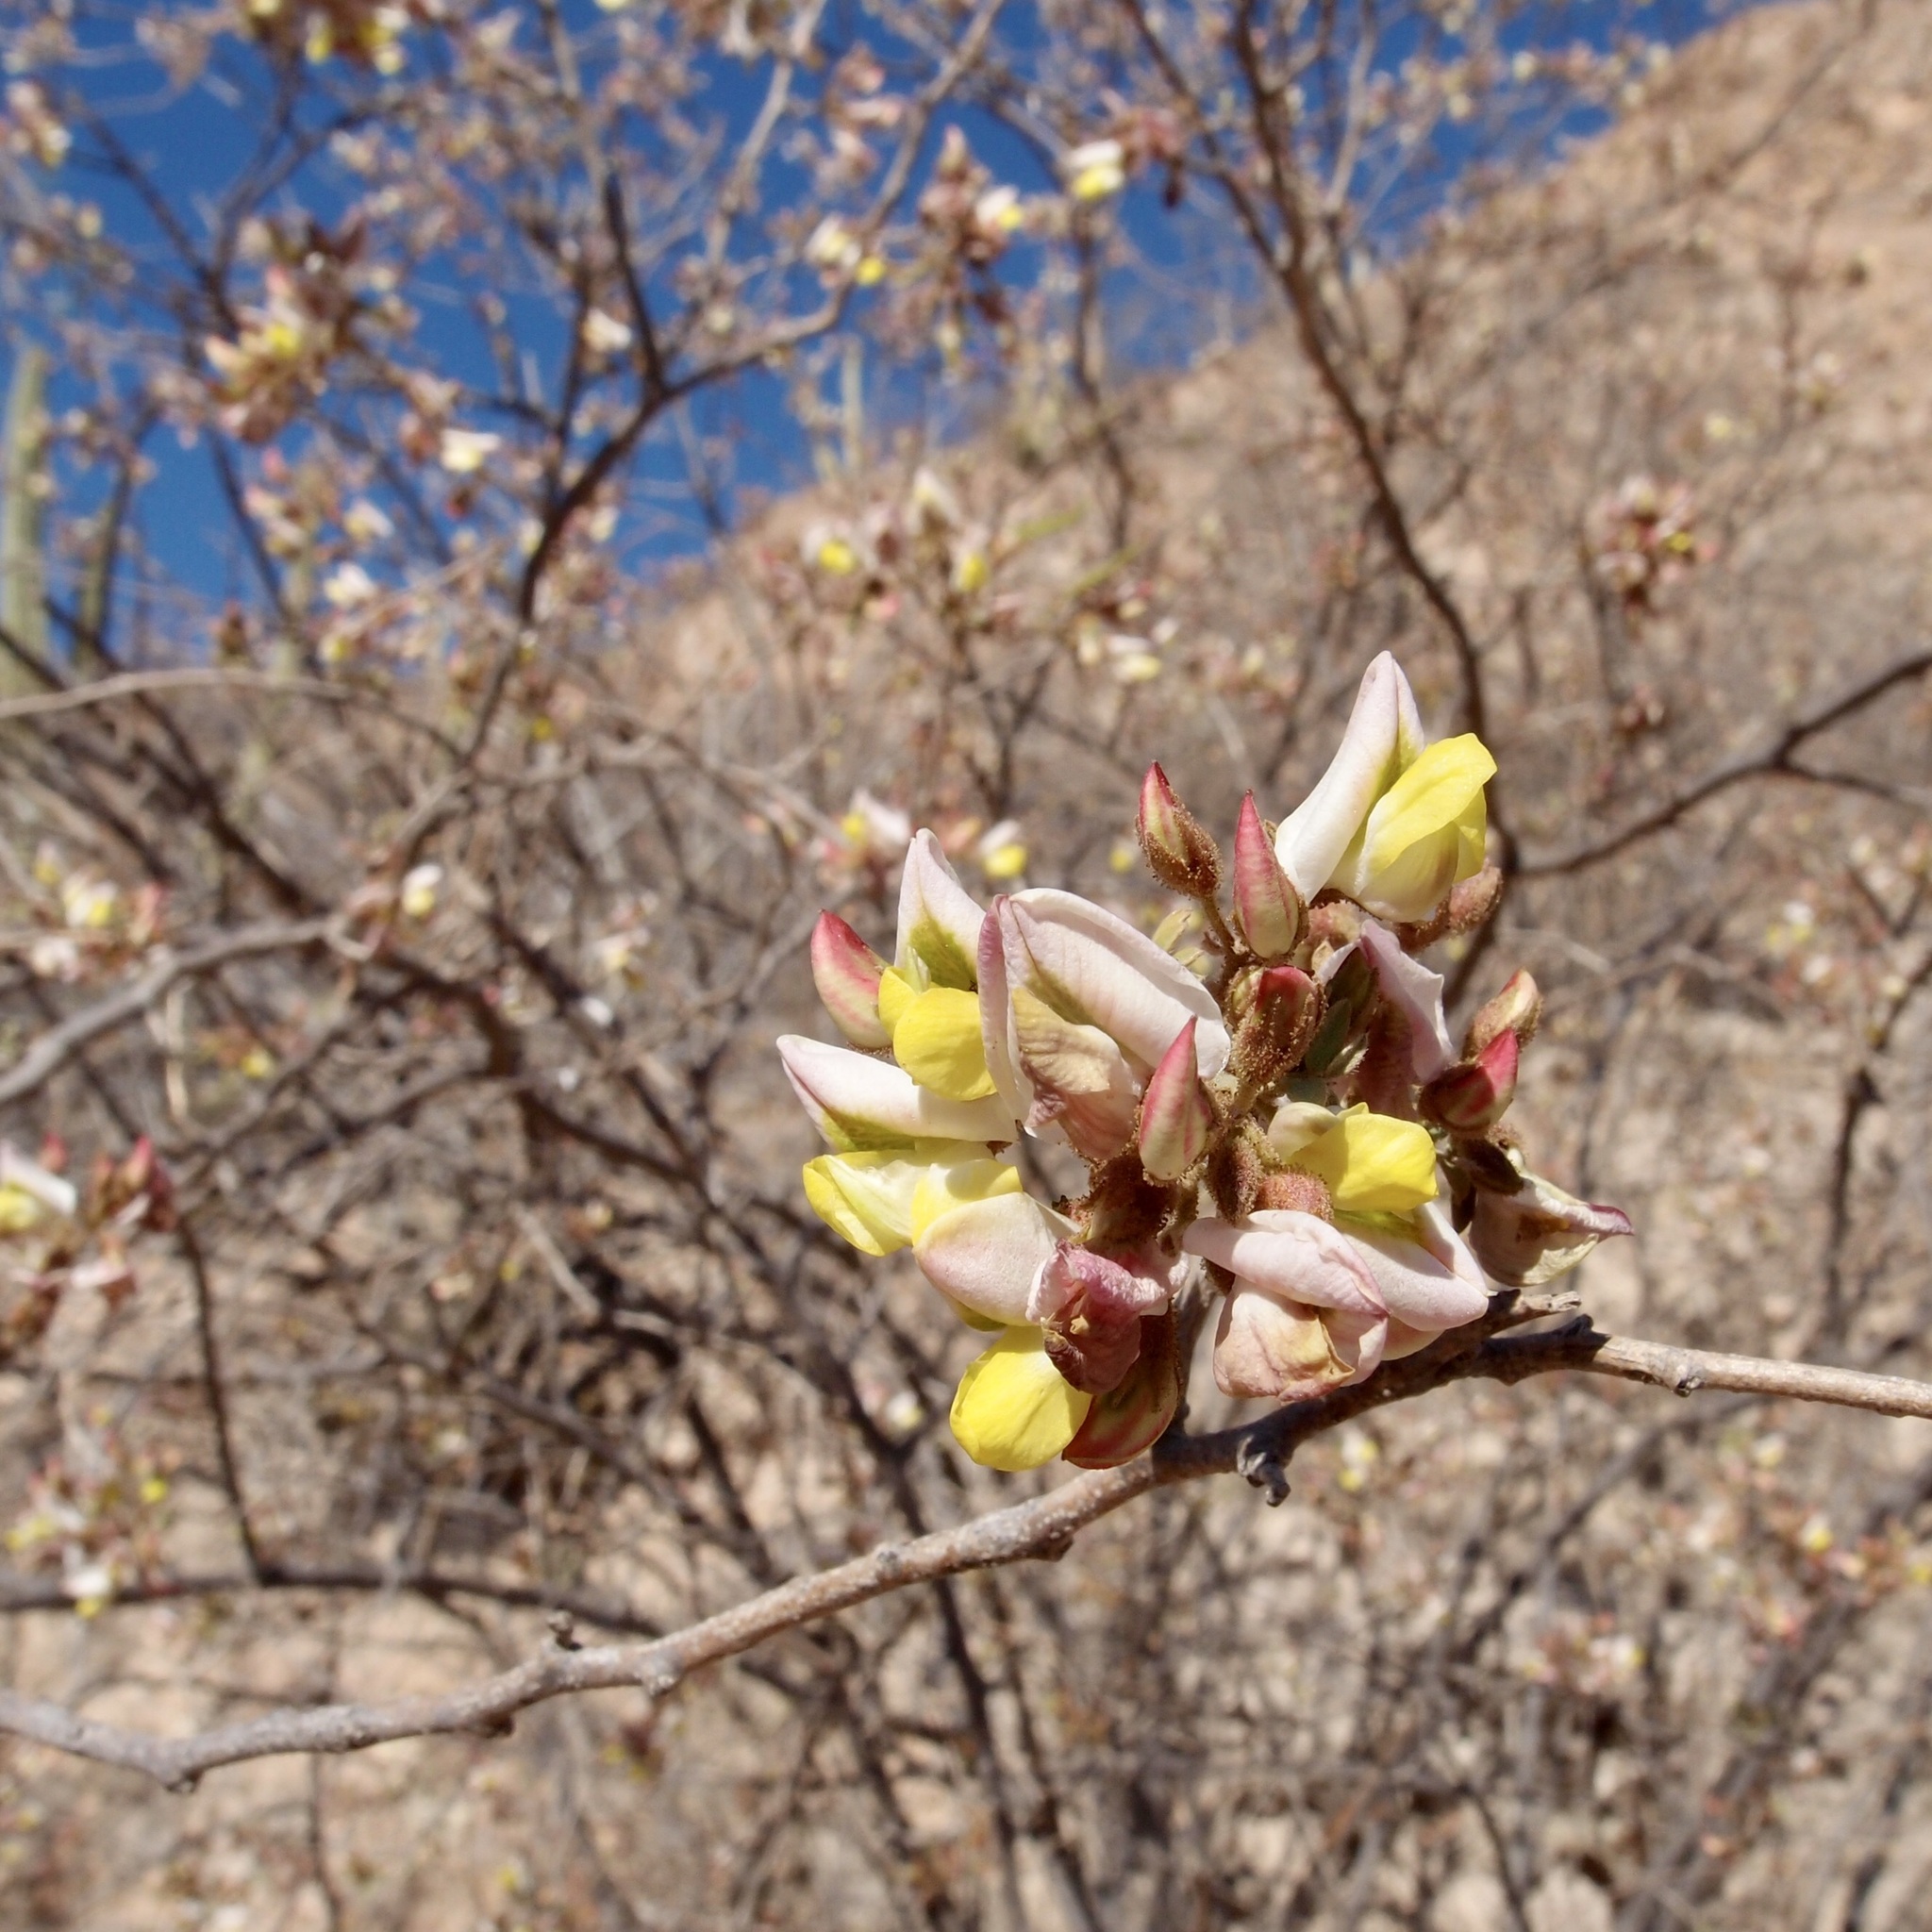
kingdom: Plantae
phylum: Tracheophyta
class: Magnoliopsida
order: Fabales
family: Fabaceae
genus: Coursetia
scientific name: Coursetia glandulosa
